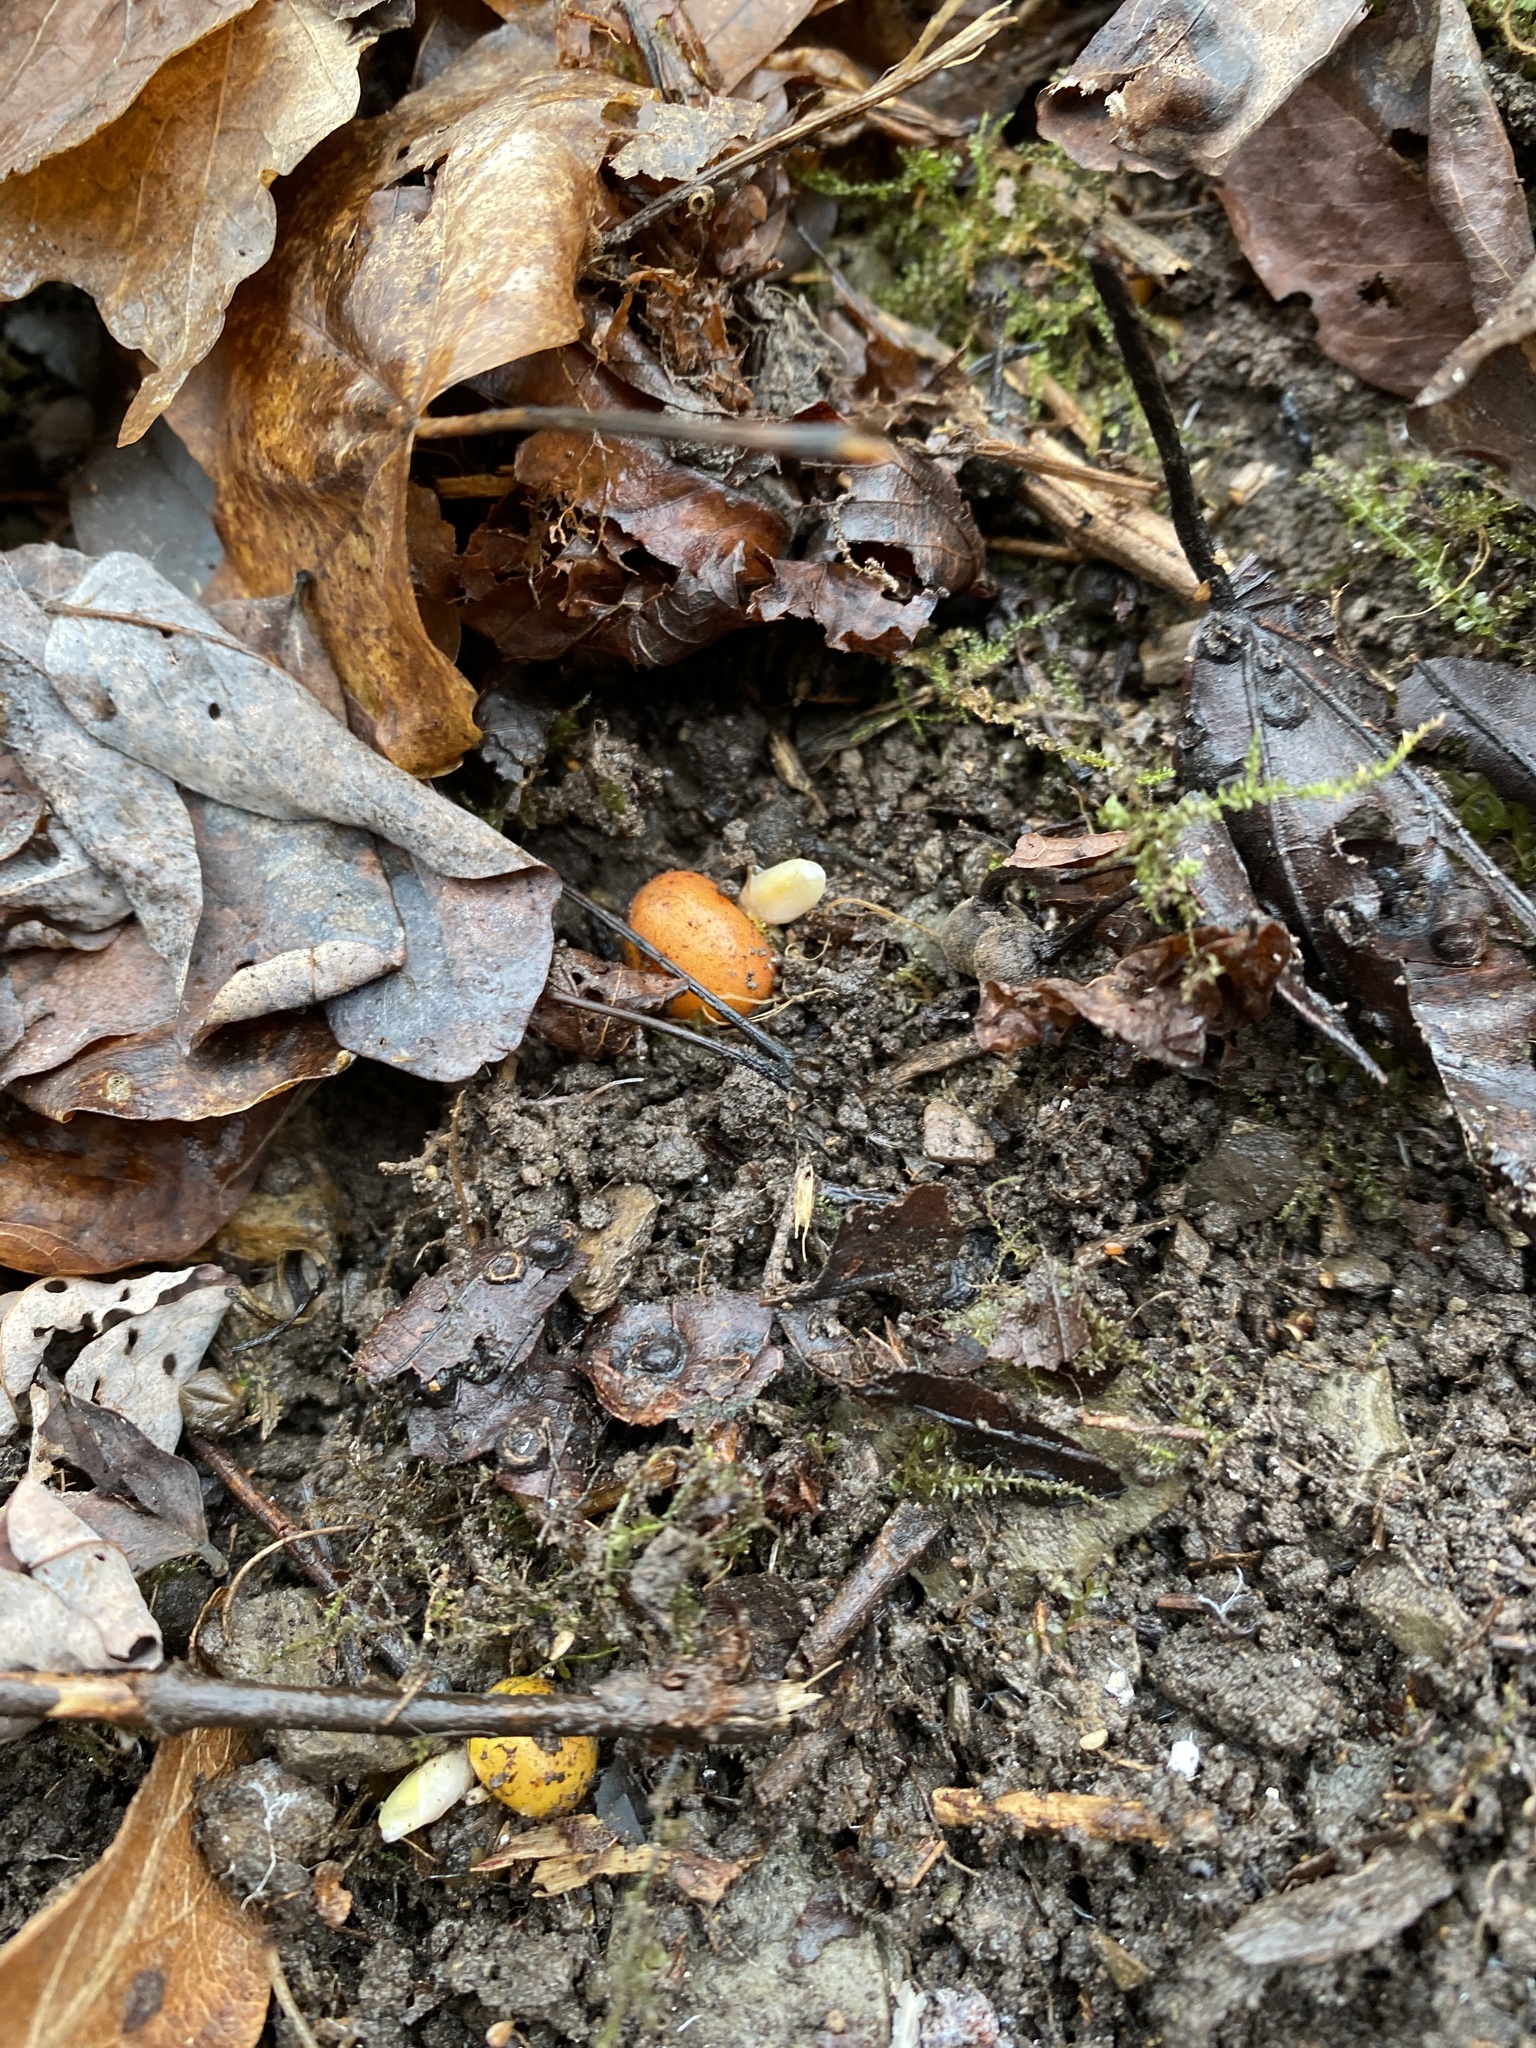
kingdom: Plantae
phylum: Tracheophyta
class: Magnoliopsida
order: Ranunculales
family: Papaveraceae
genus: Dicentra
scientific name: Dicentra canadensis
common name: Squirrel-corn
